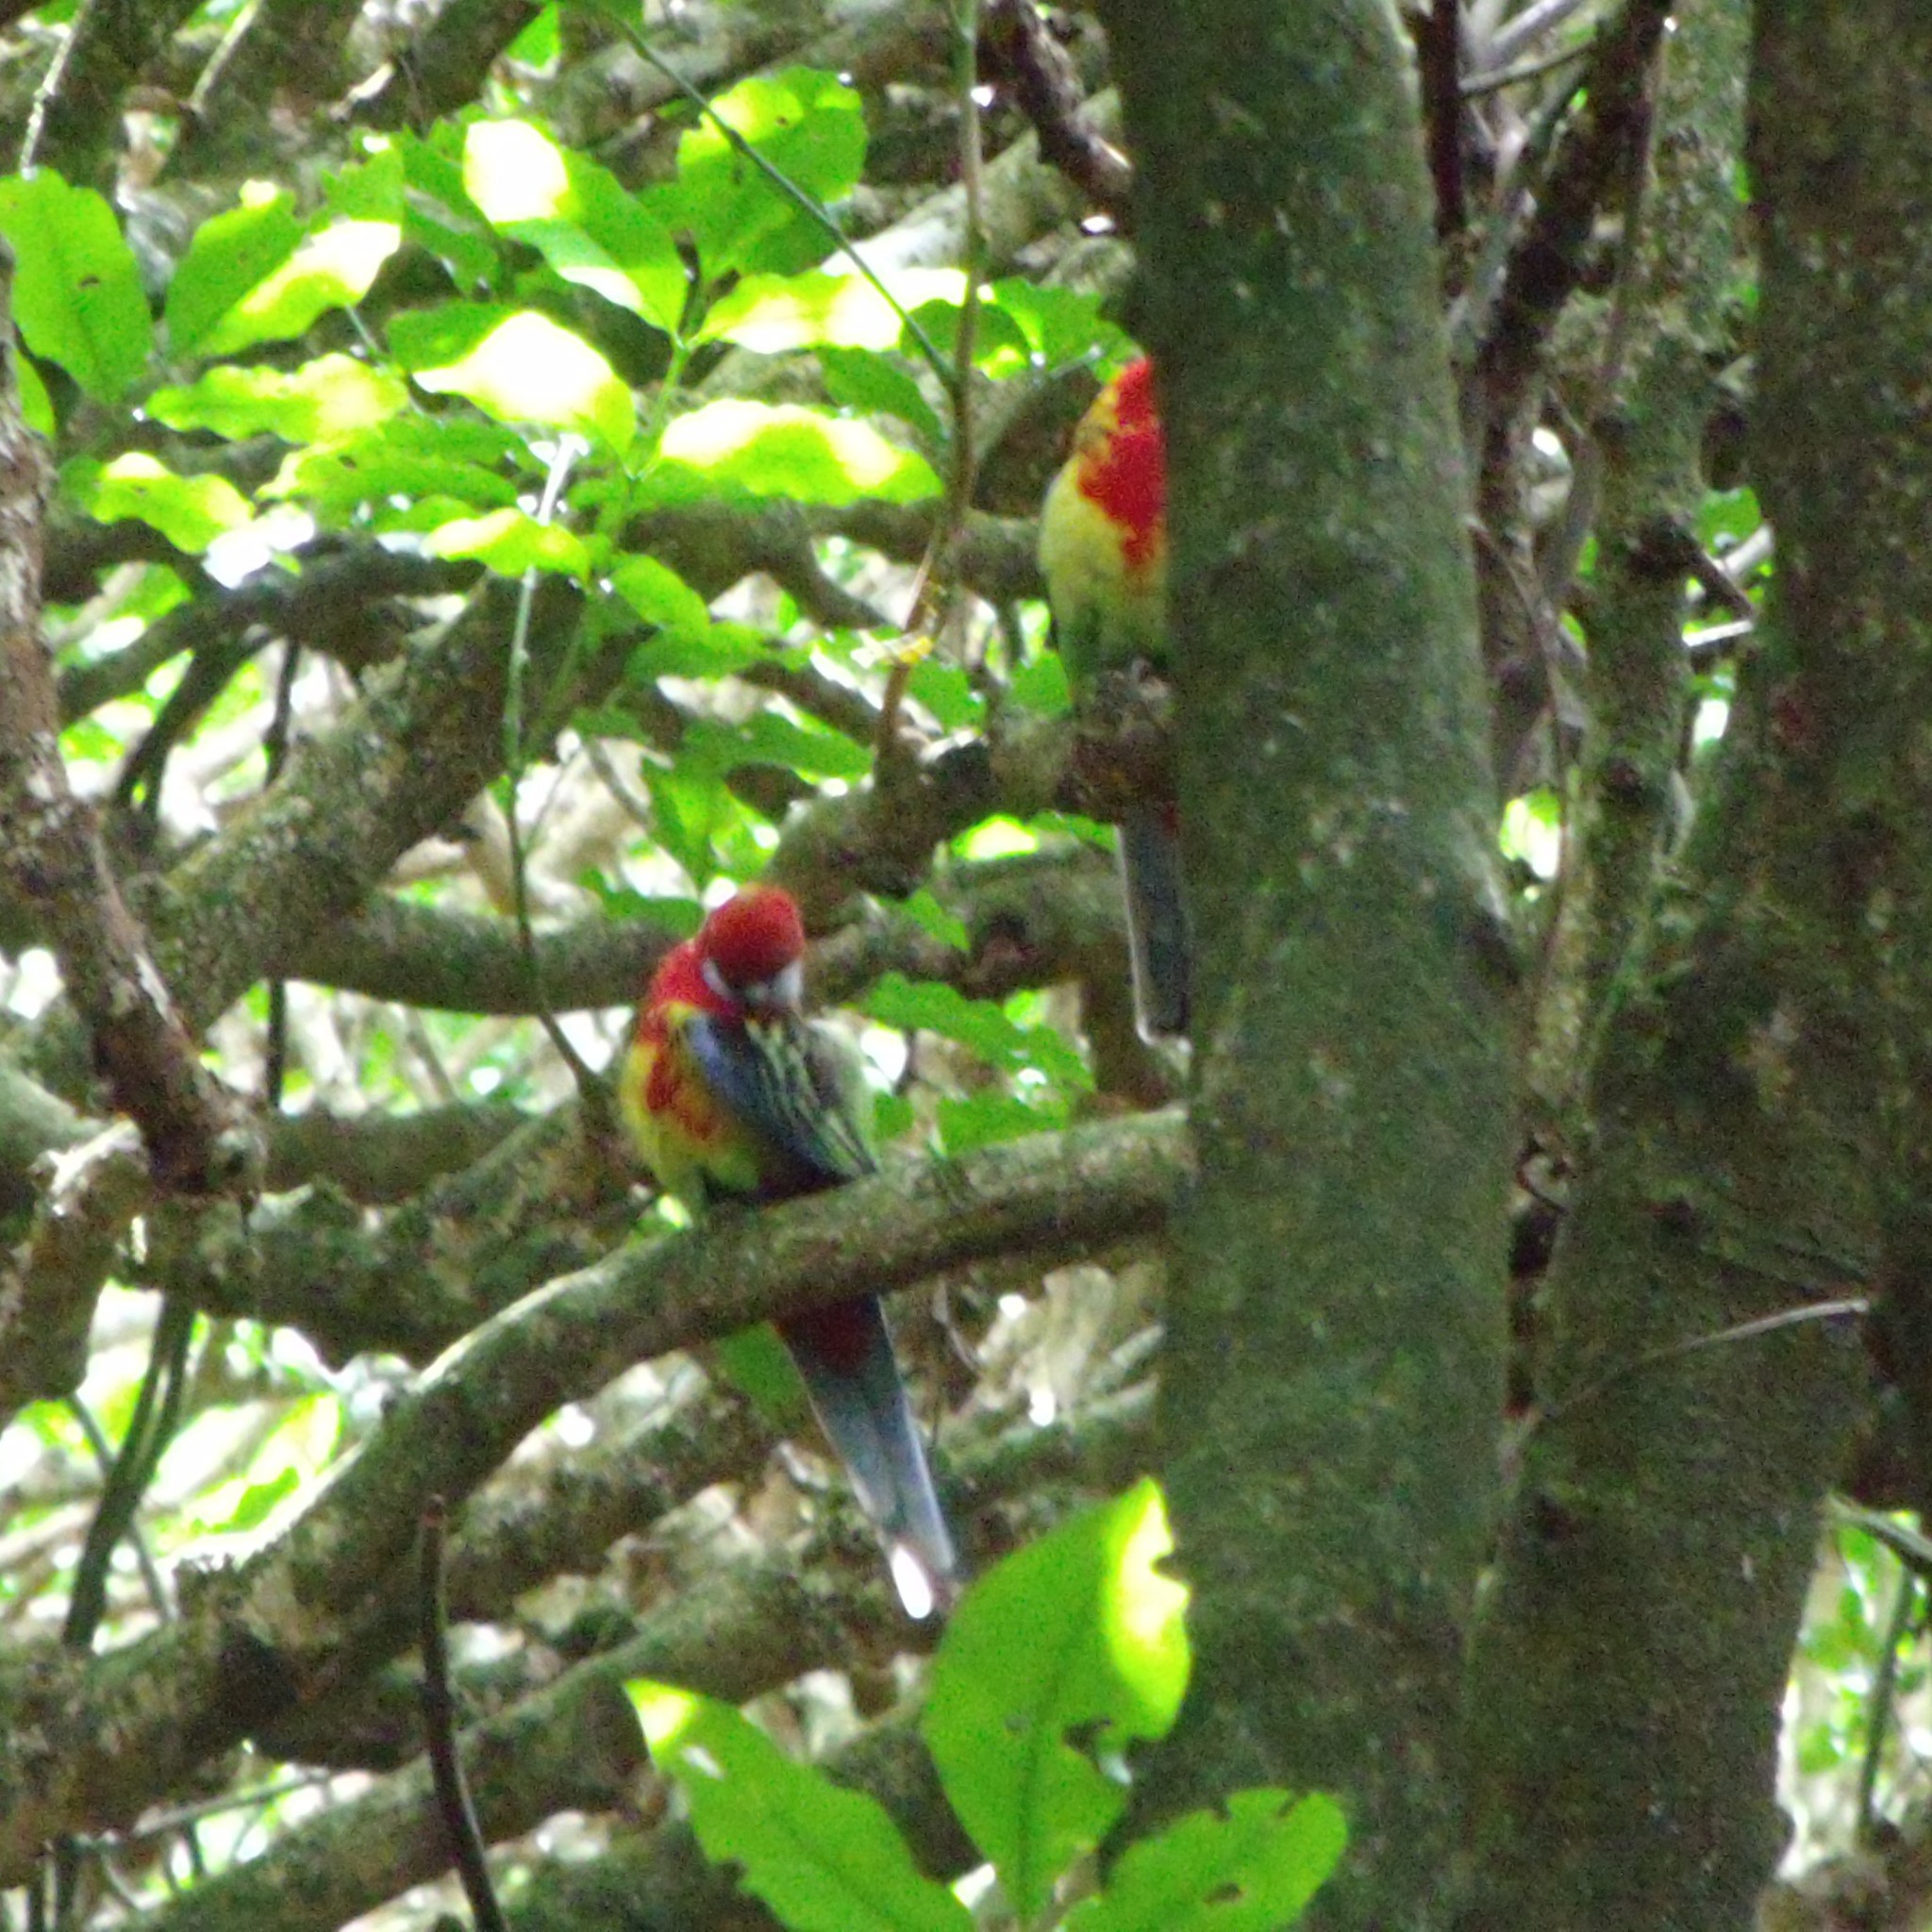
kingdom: Animalia
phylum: Chordata
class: Aves
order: Psittaciformes
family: Psittacidae
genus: Platycercus
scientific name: Platycercus eximius
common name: Eastern rosella
